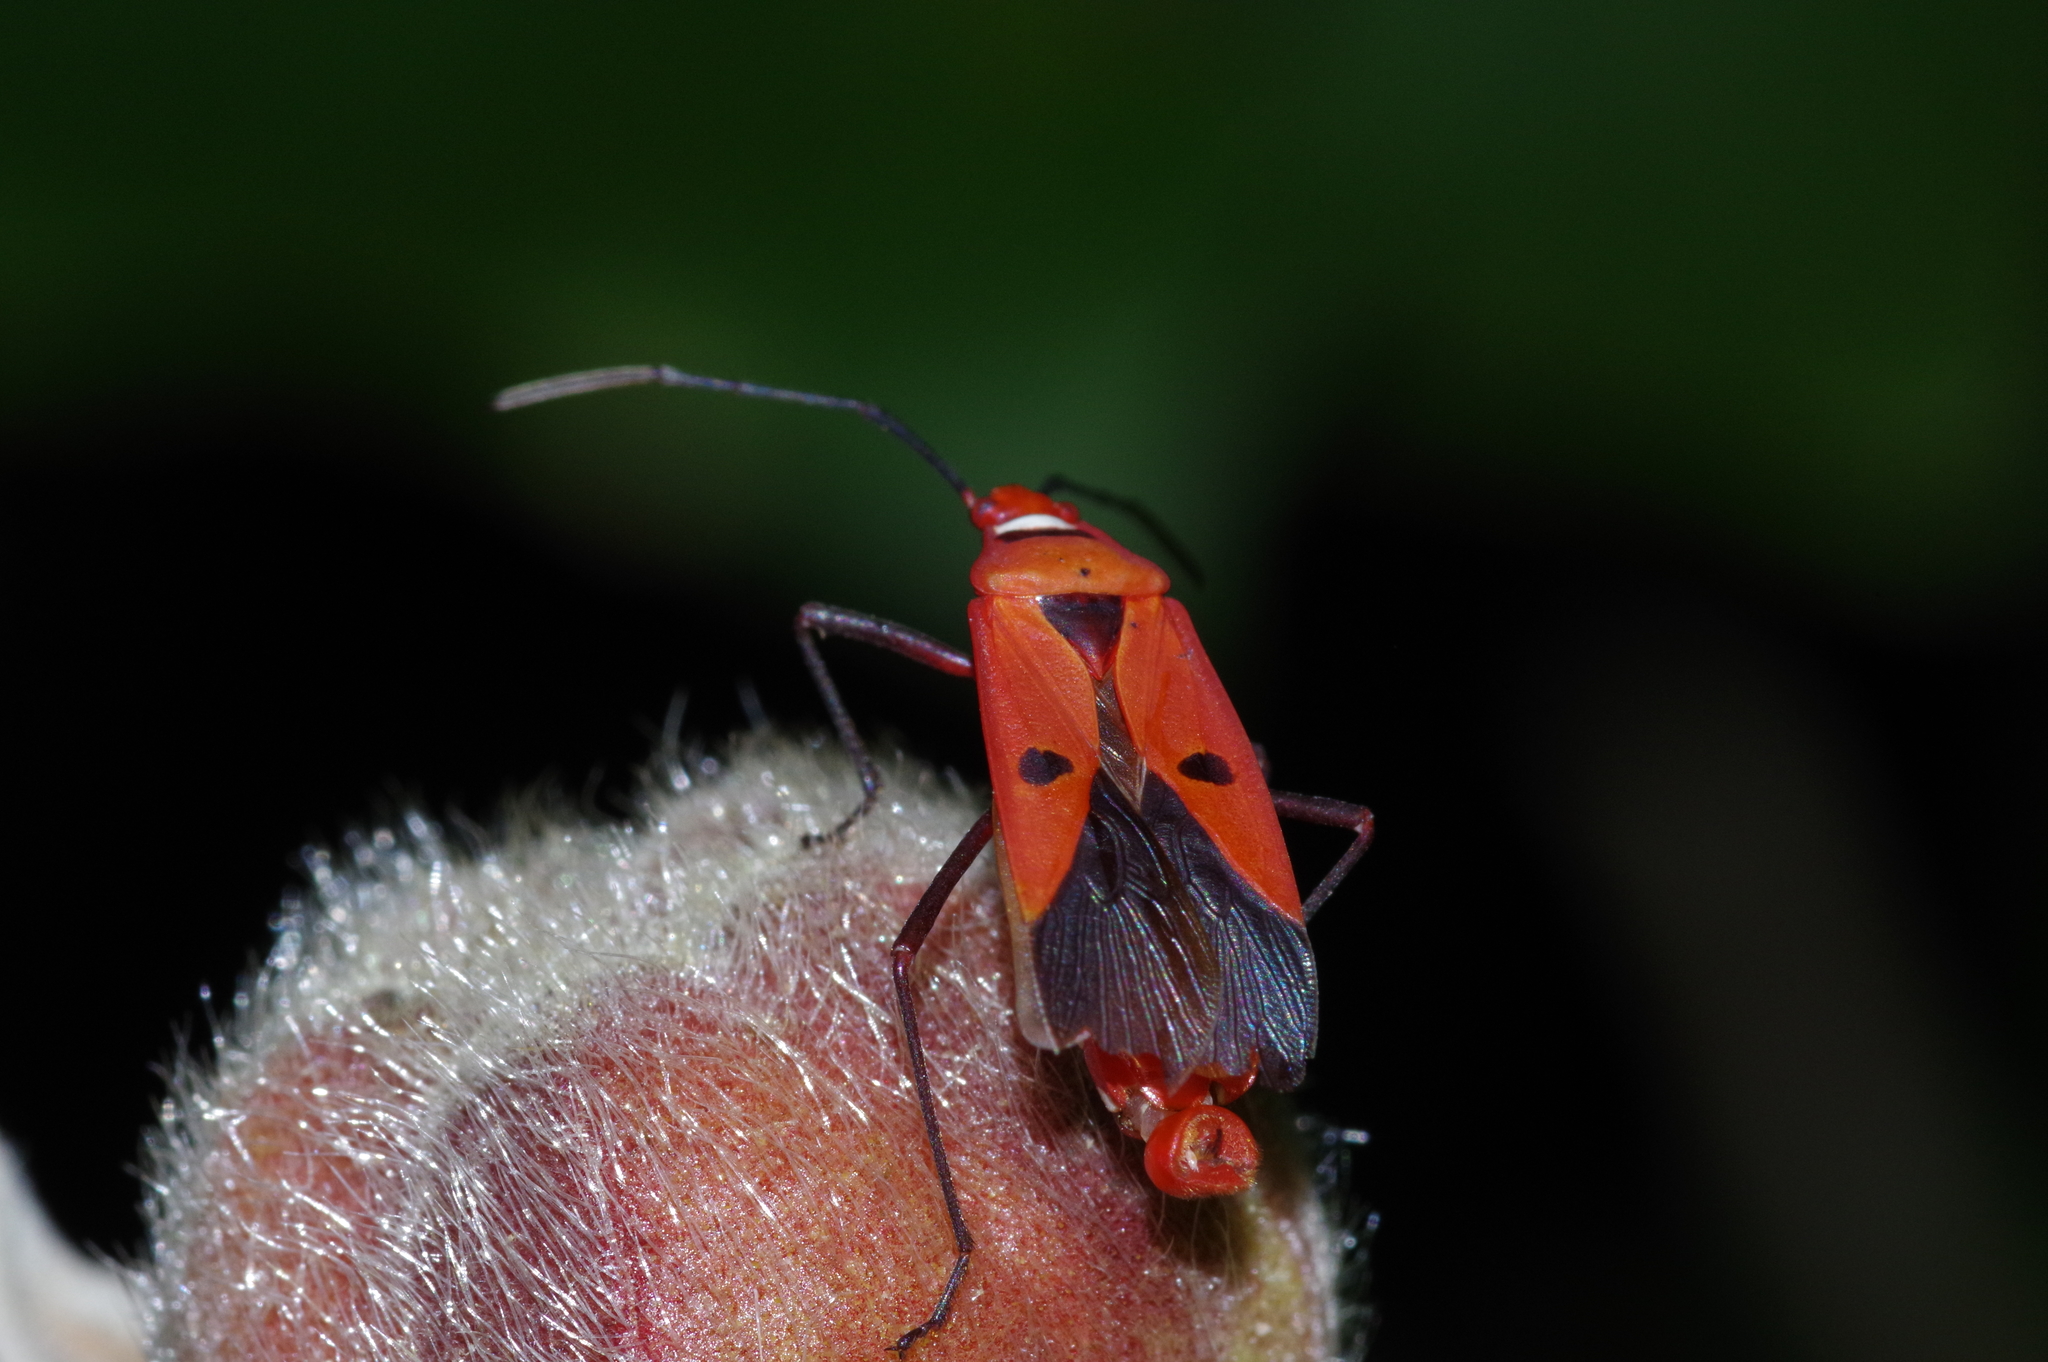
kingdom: Animalia
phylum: Arthropoda
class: Insecta
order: Hemiptera
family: Pyrrhocoridae
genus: Dysdercus
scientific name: Dysdercus cingulatus
